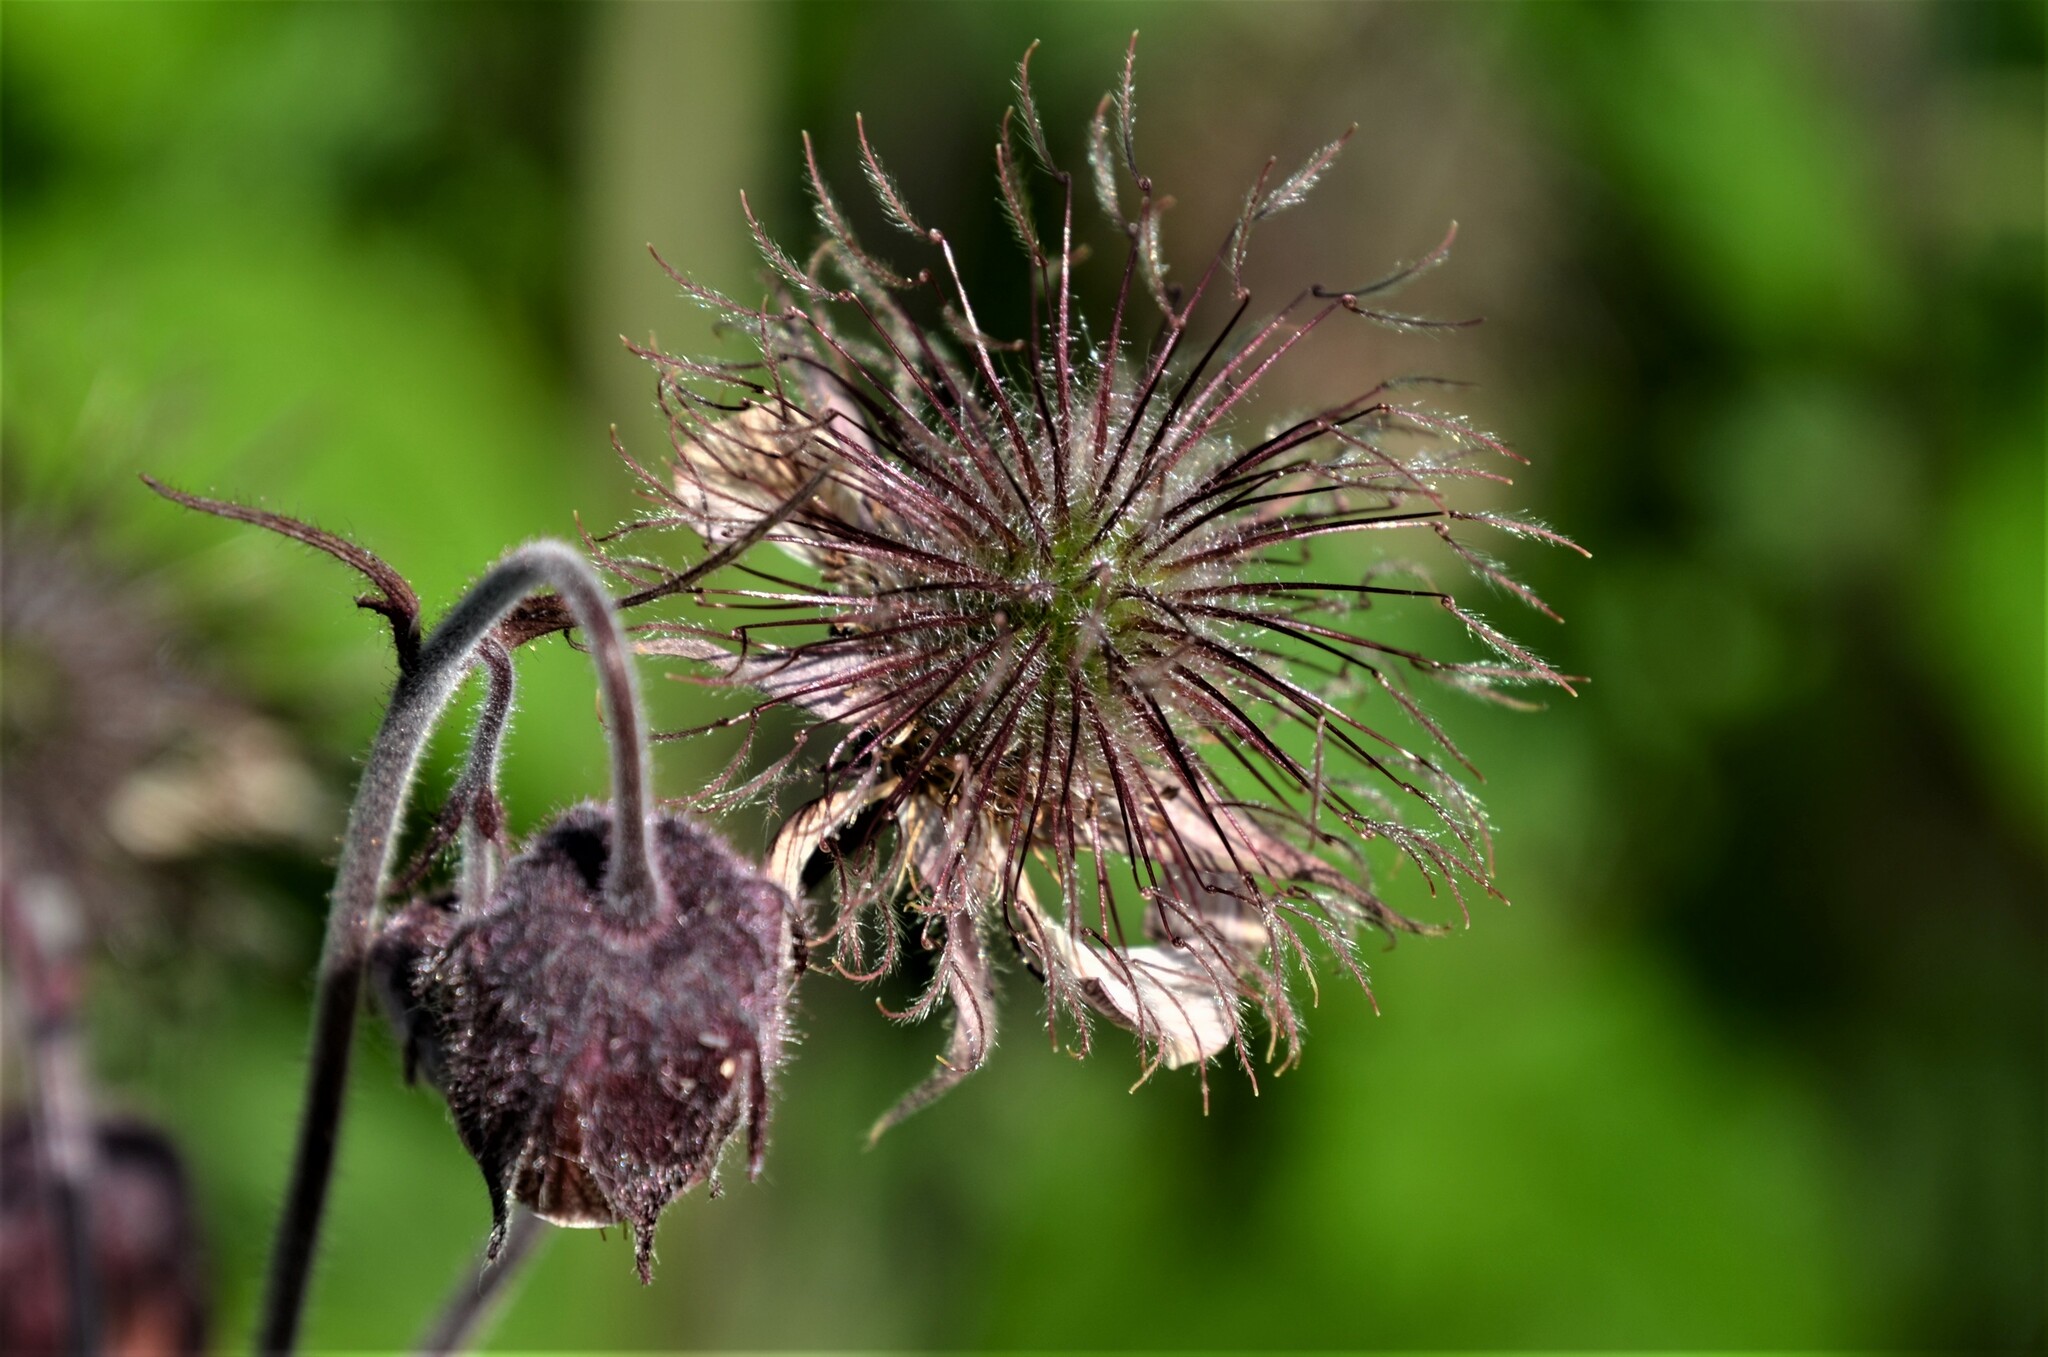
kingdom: Plantae
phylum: Tracheophyta
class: Magnoliopsida
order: Rosales
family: Rosaceae
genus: Geum
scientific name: Geum rivale
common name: Water avens
